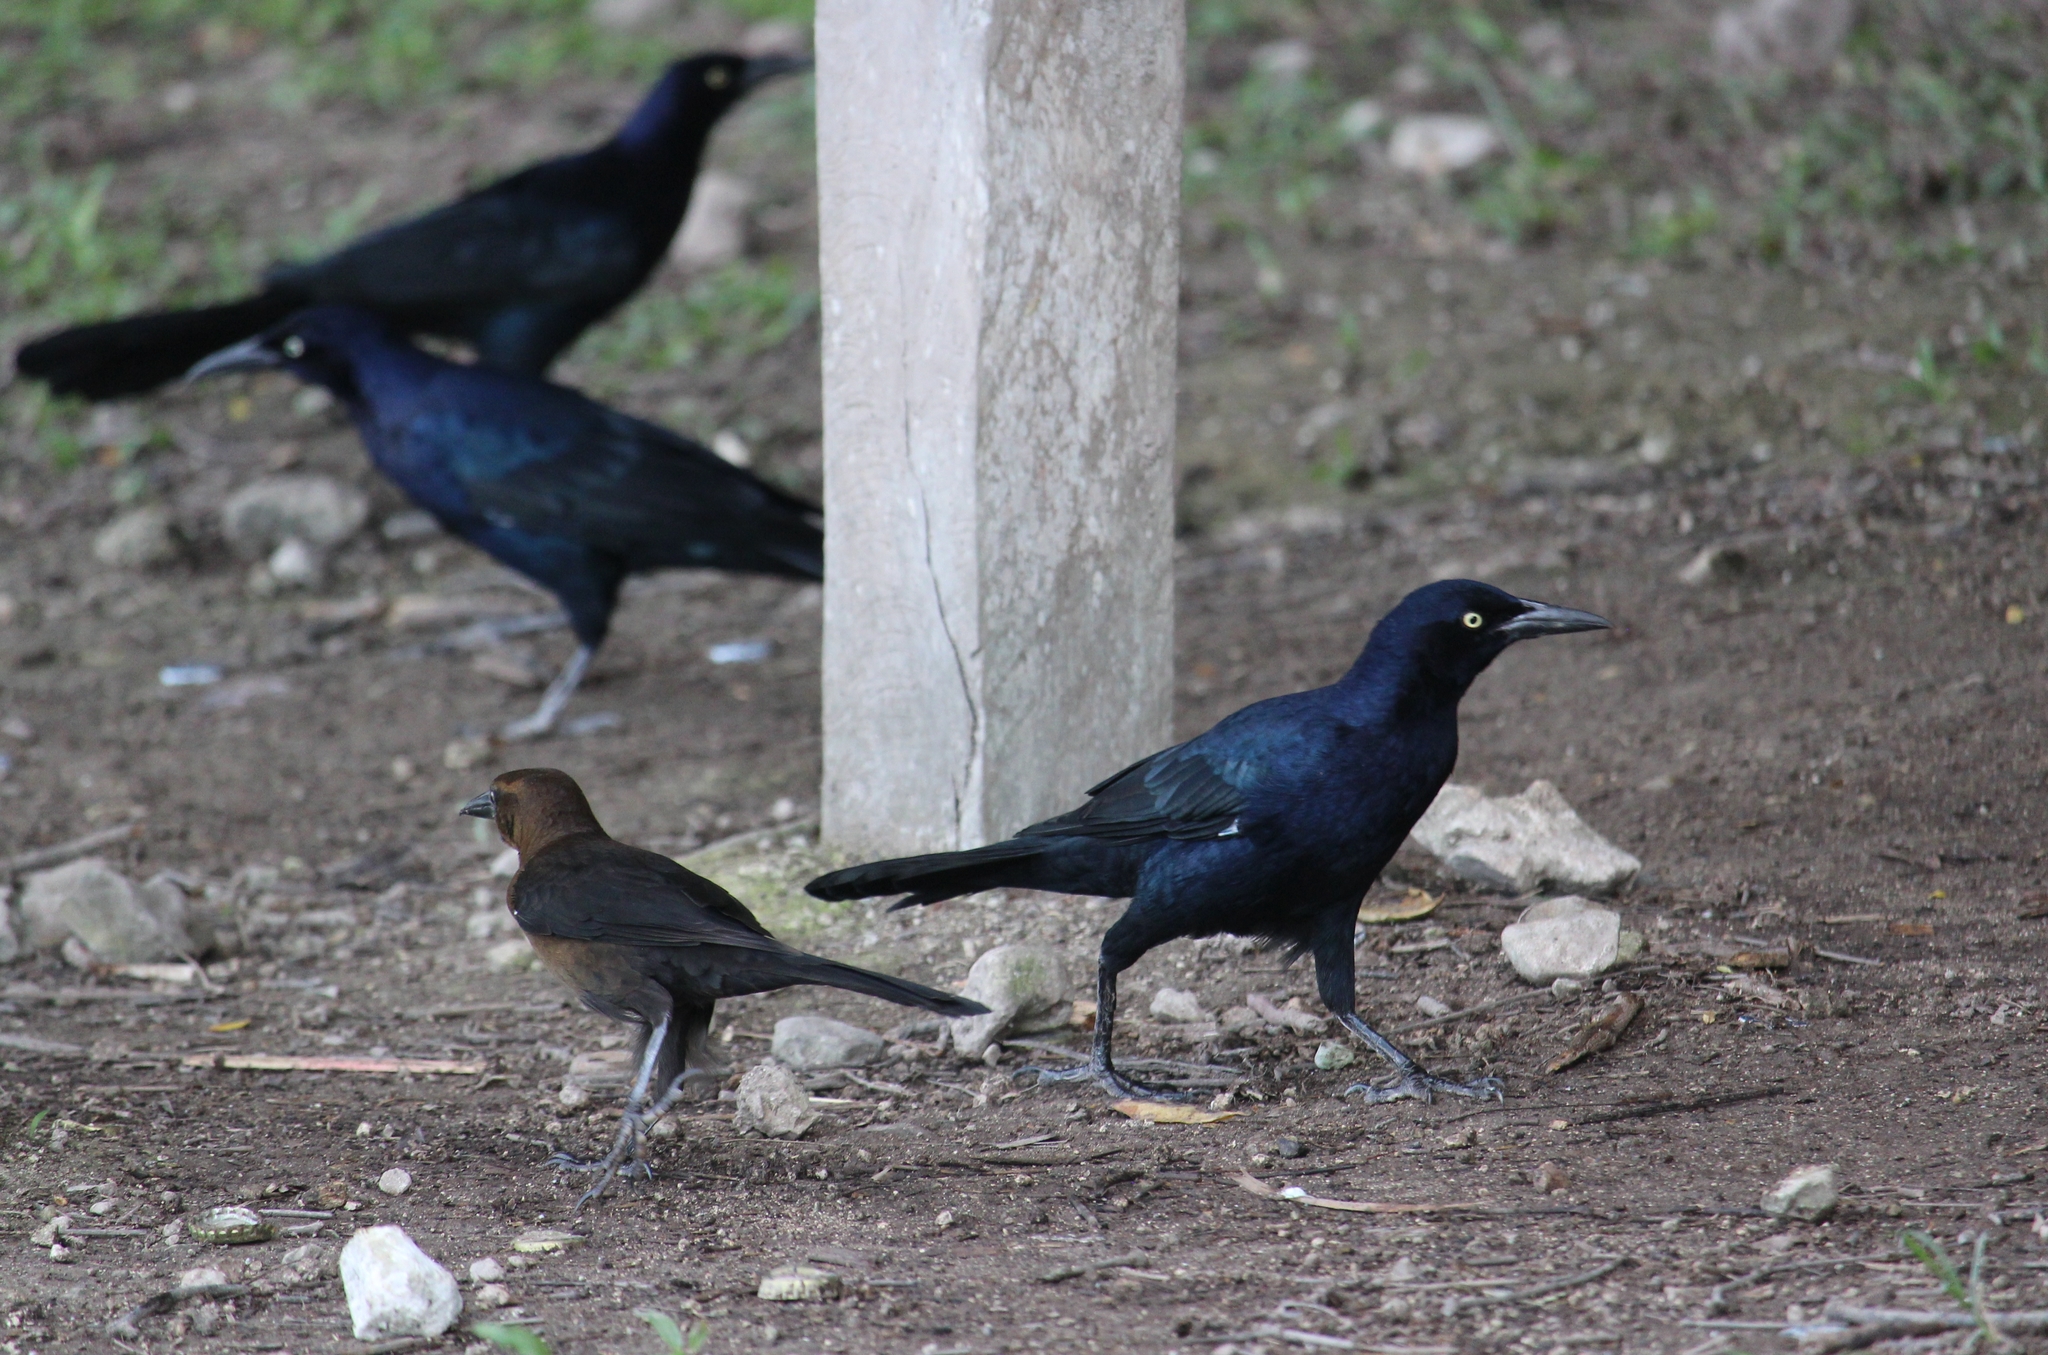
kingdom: Animalia
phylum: Chordata
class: Aves
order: Passeriformes
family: Icteridae
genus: Quiscalus
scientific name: Quiscalus mexicanus
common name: Great-tailed grackle
